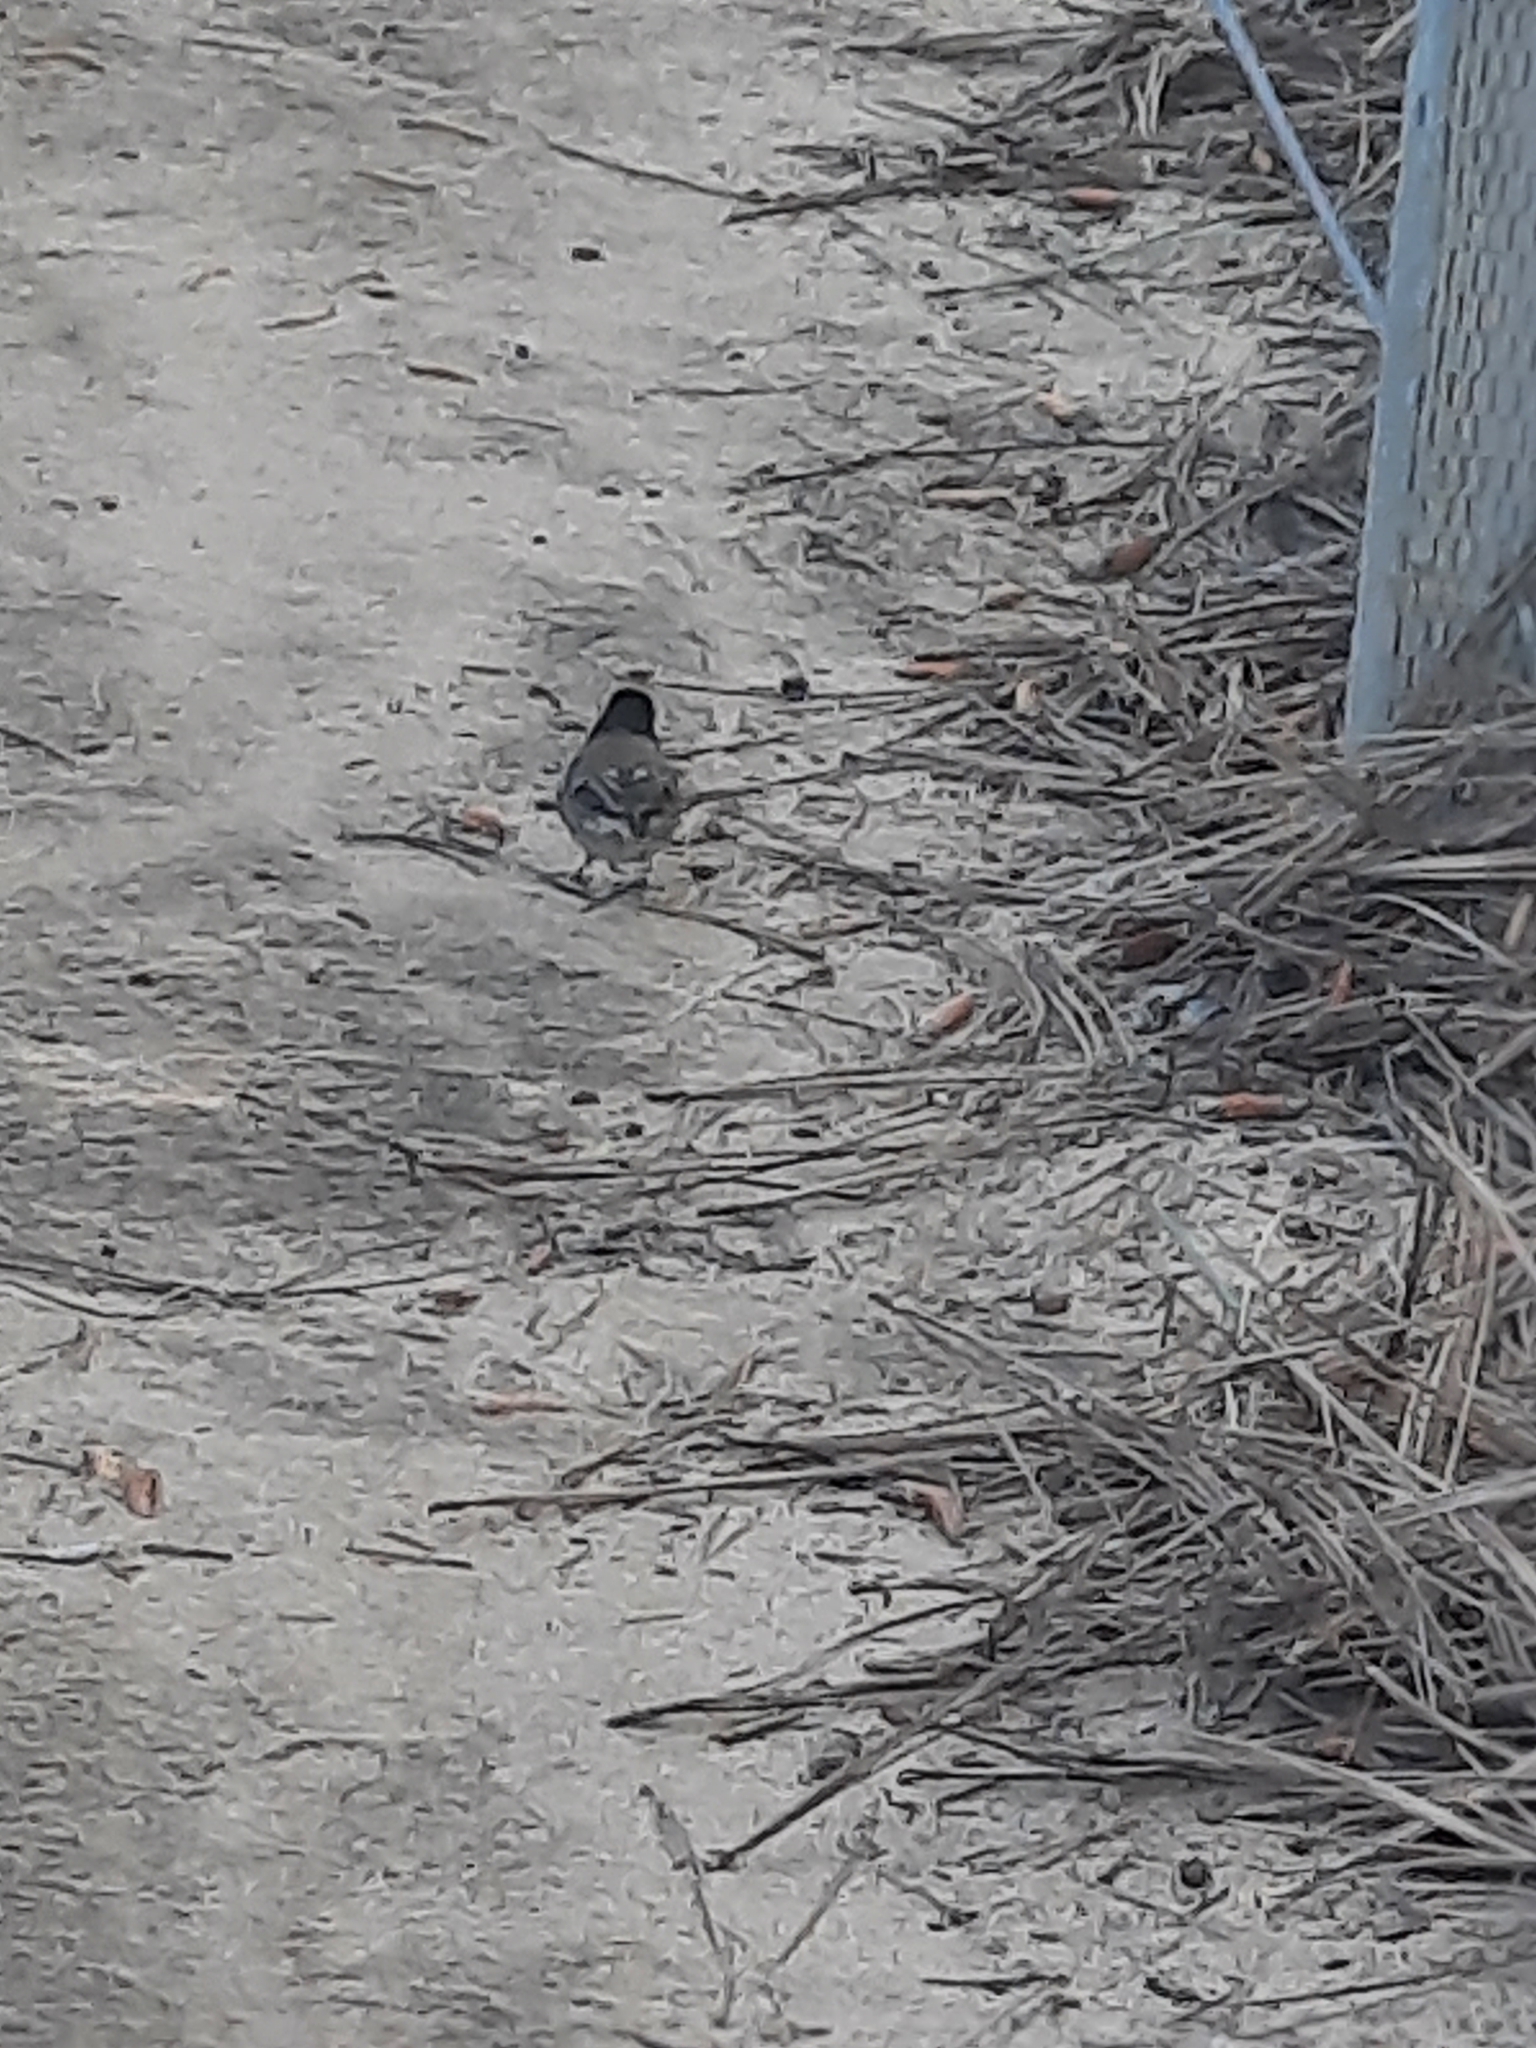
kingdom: Animalia
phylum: Chordata
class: Aves
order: Passeriformes
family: Passerellidae
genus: Junco
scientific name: Junco hyemalis
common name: Dark-eyed junco
